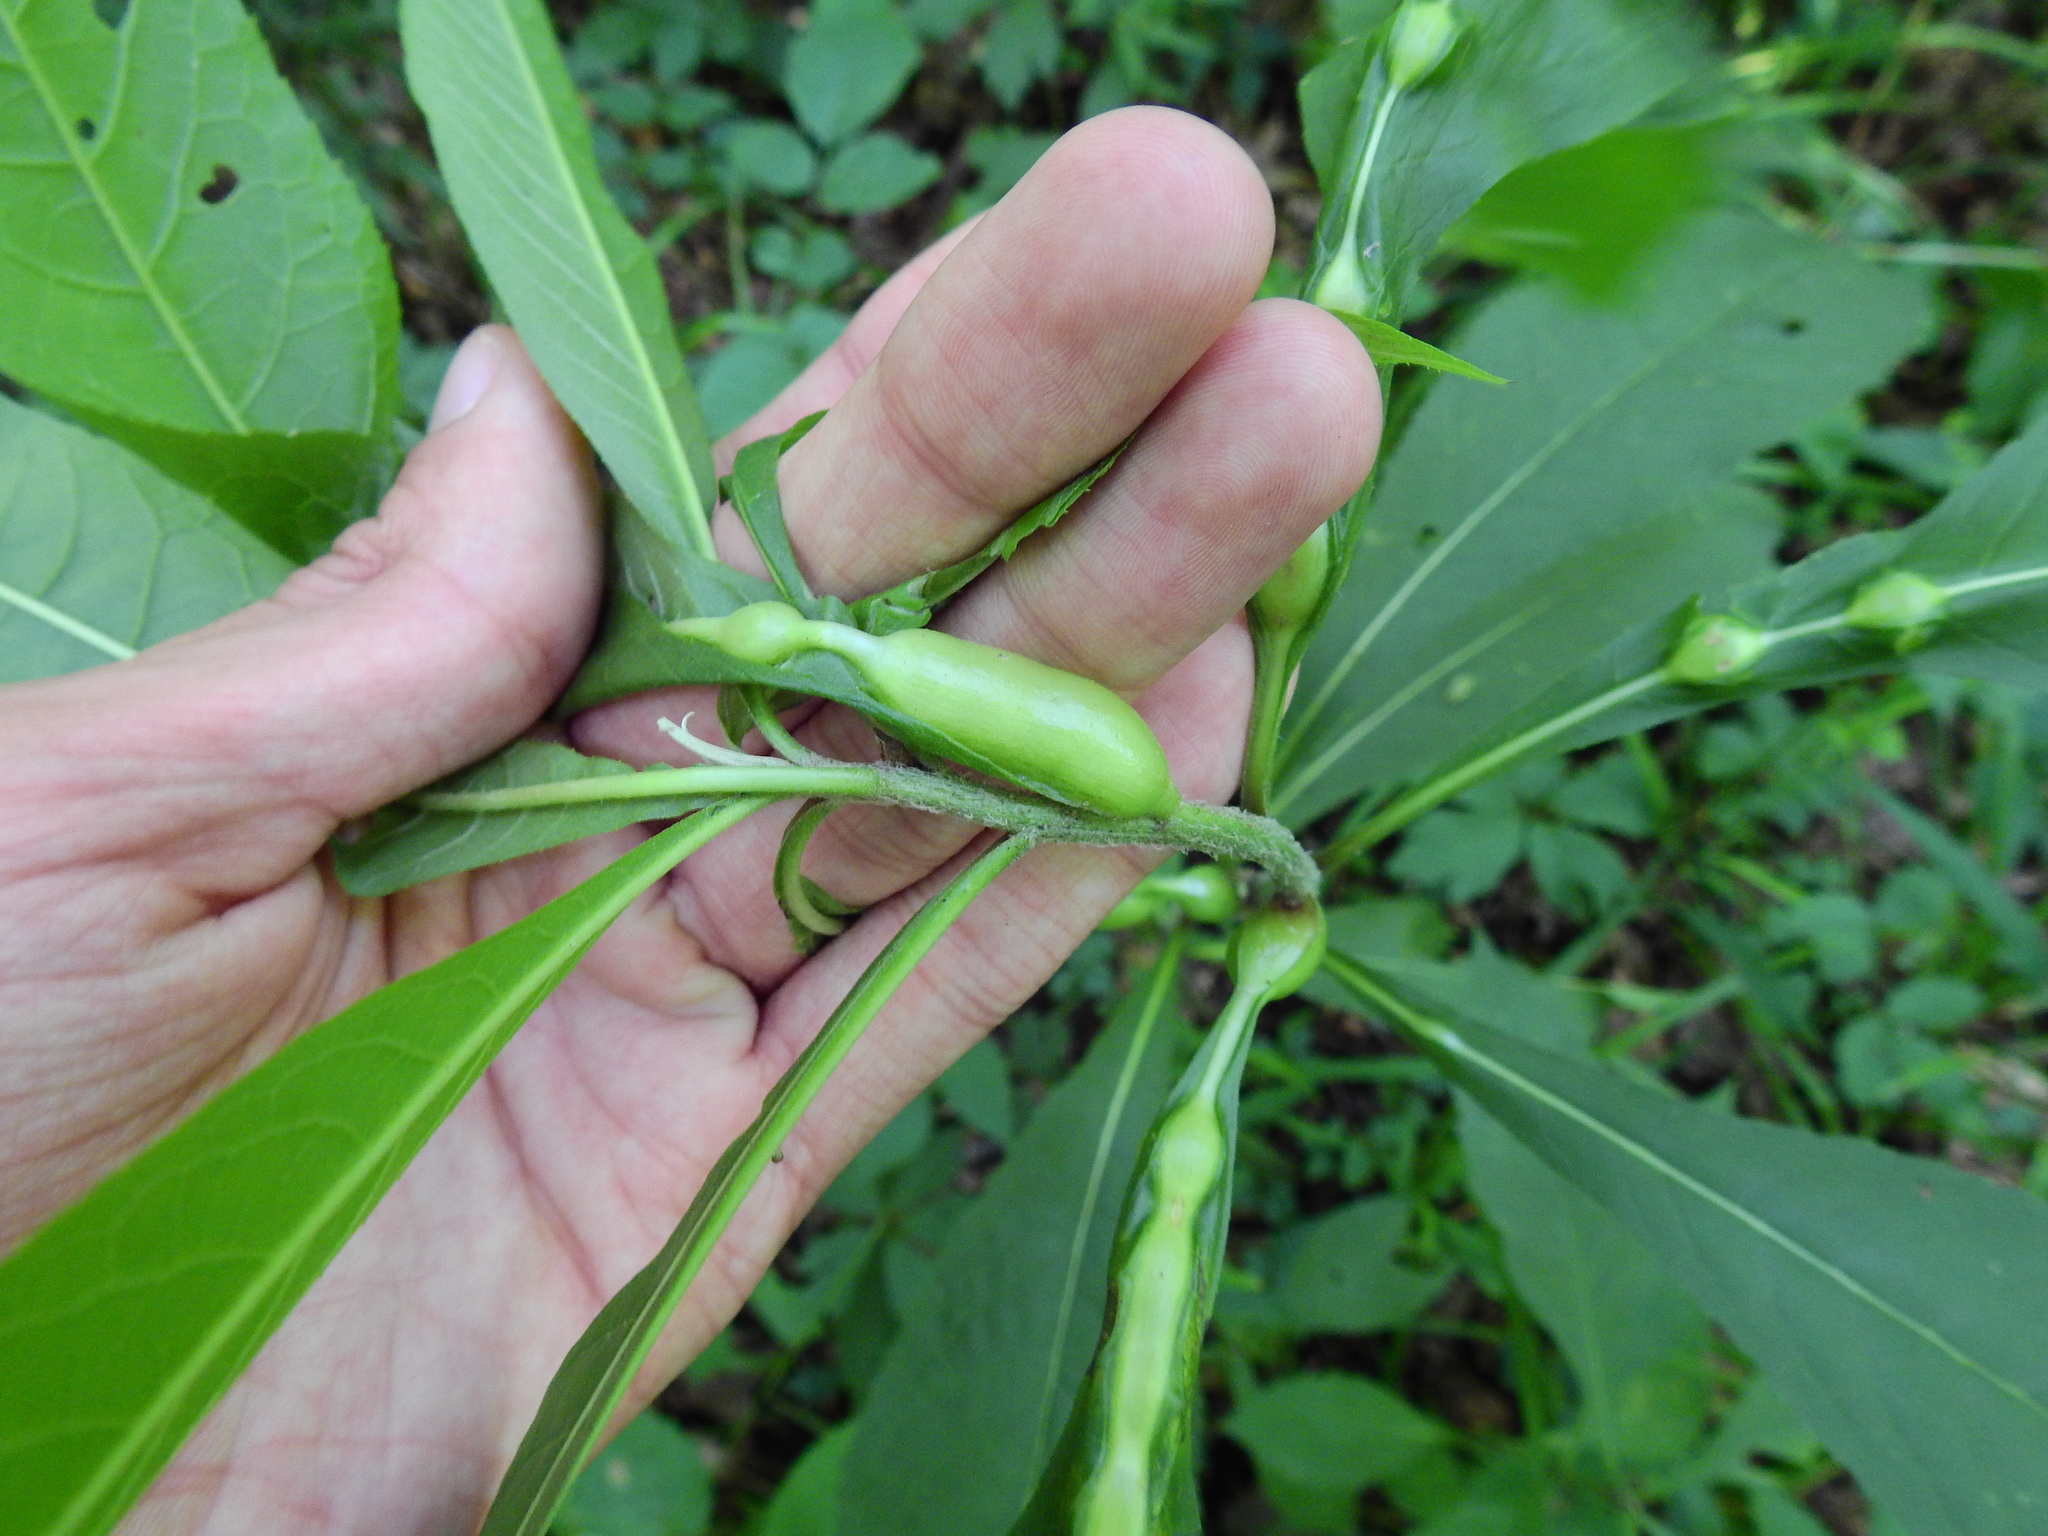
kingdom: Animalia
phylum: Arthropoda
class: Insecta
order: Diptera
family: Cecidomyiidae
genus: Neolasioptera
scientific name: Neolasioptera vernoniae
